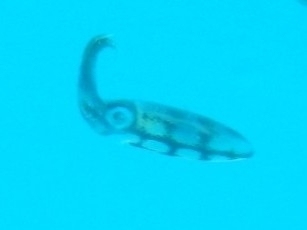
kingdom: Animalia
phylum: Mollusca
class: Cephalopoda
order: Myopsida
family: Loliginidae
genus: Sepioteuthis
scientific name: Sepioteuthis sepioidea
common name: Caribbean reef squid
